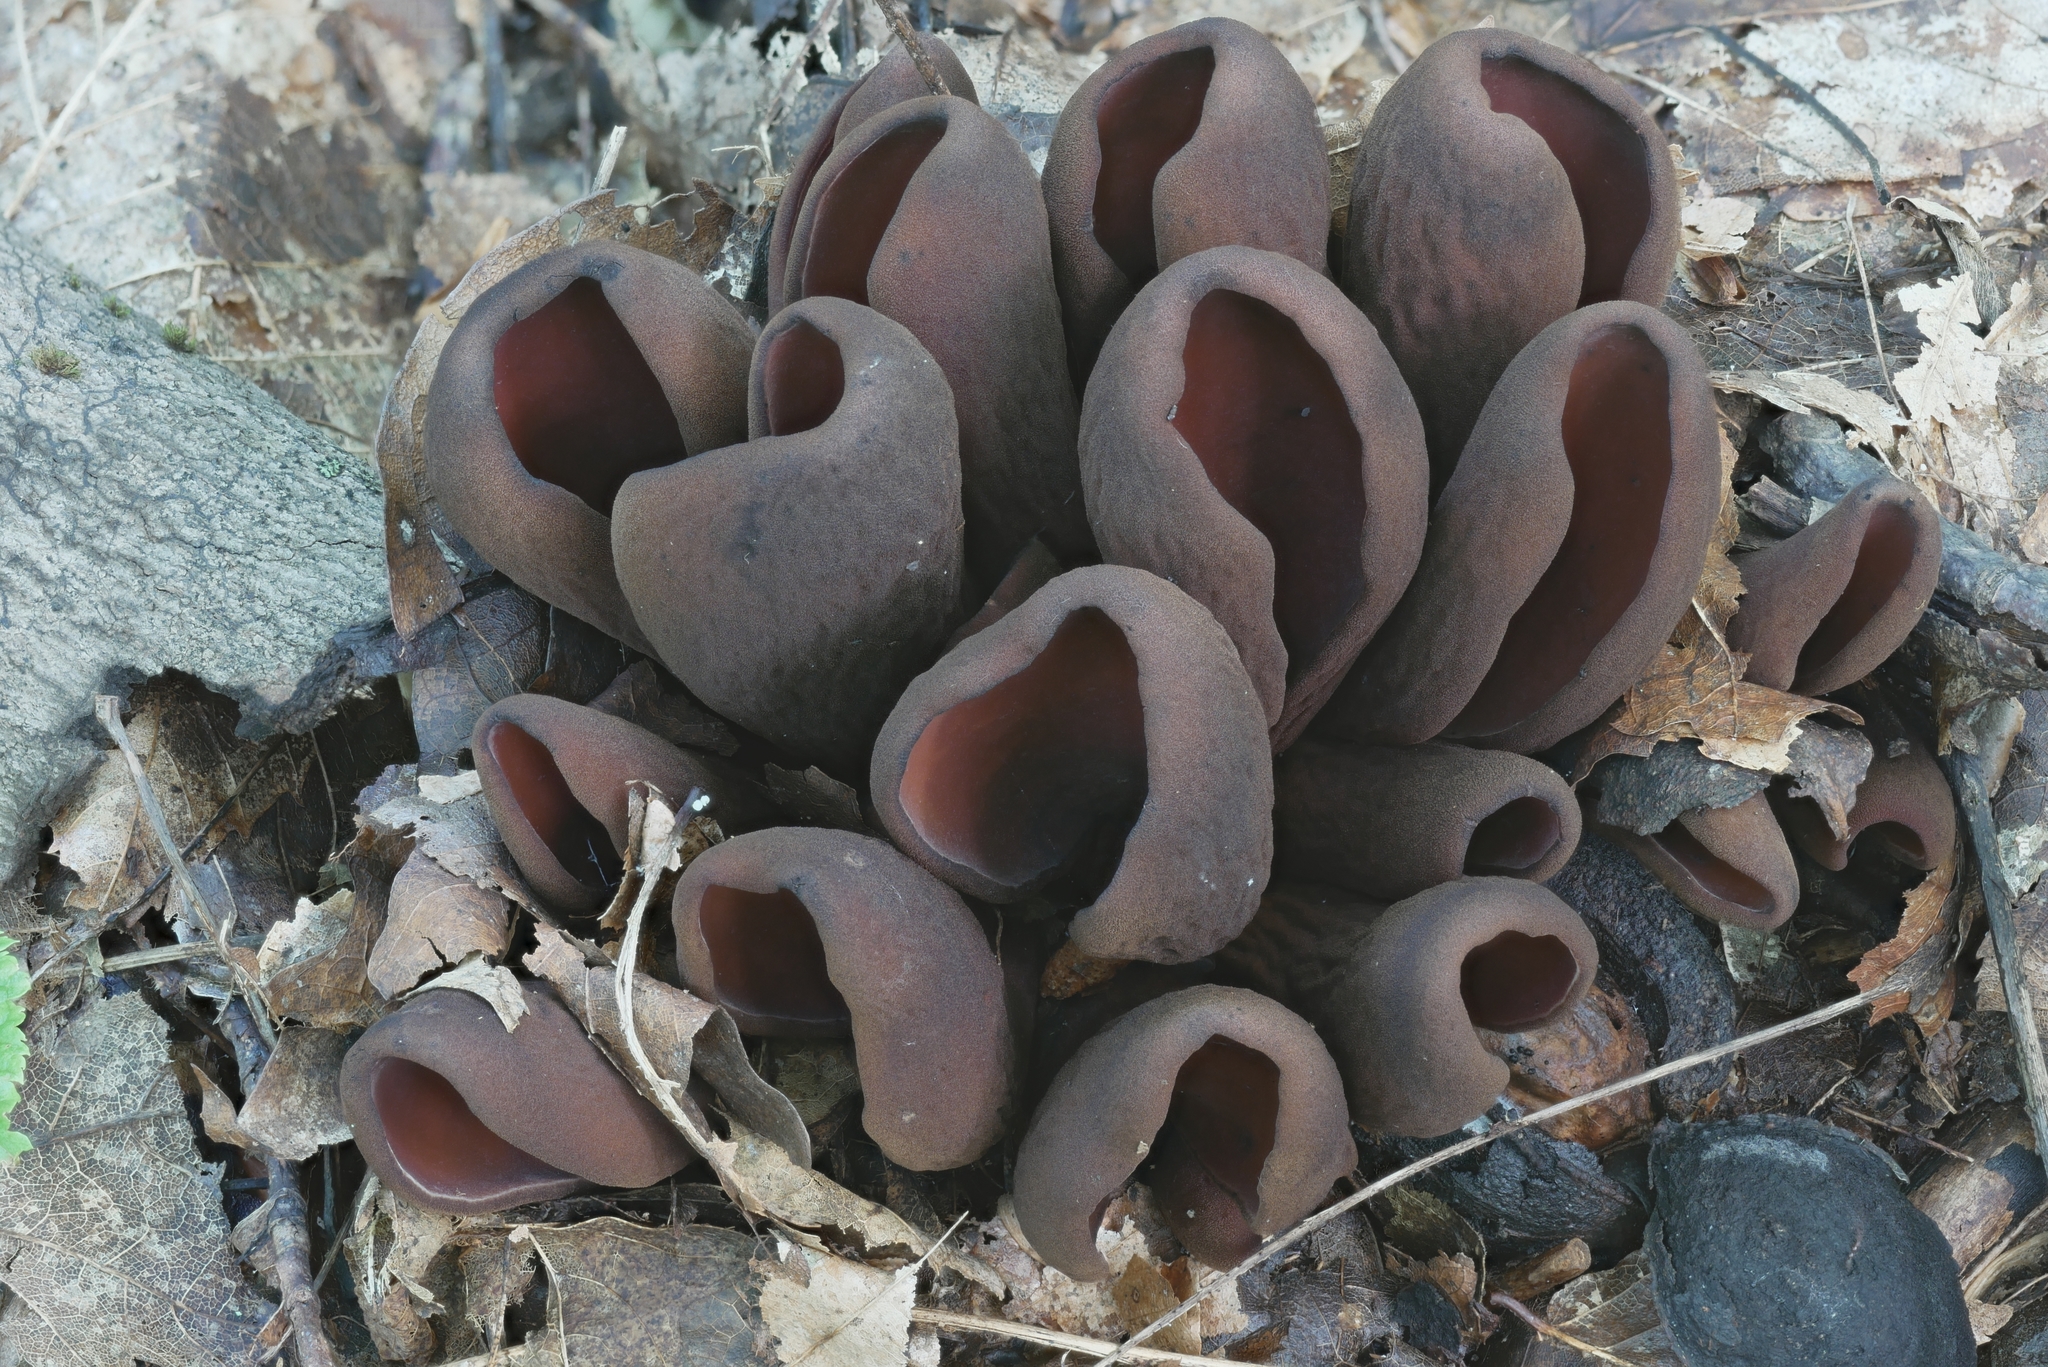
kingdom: Fungi
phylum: Ascomycota
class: Pezizomycetes
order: Pezizales
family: Wynneaceae
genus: Wynnea
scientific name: Wynnea americana
